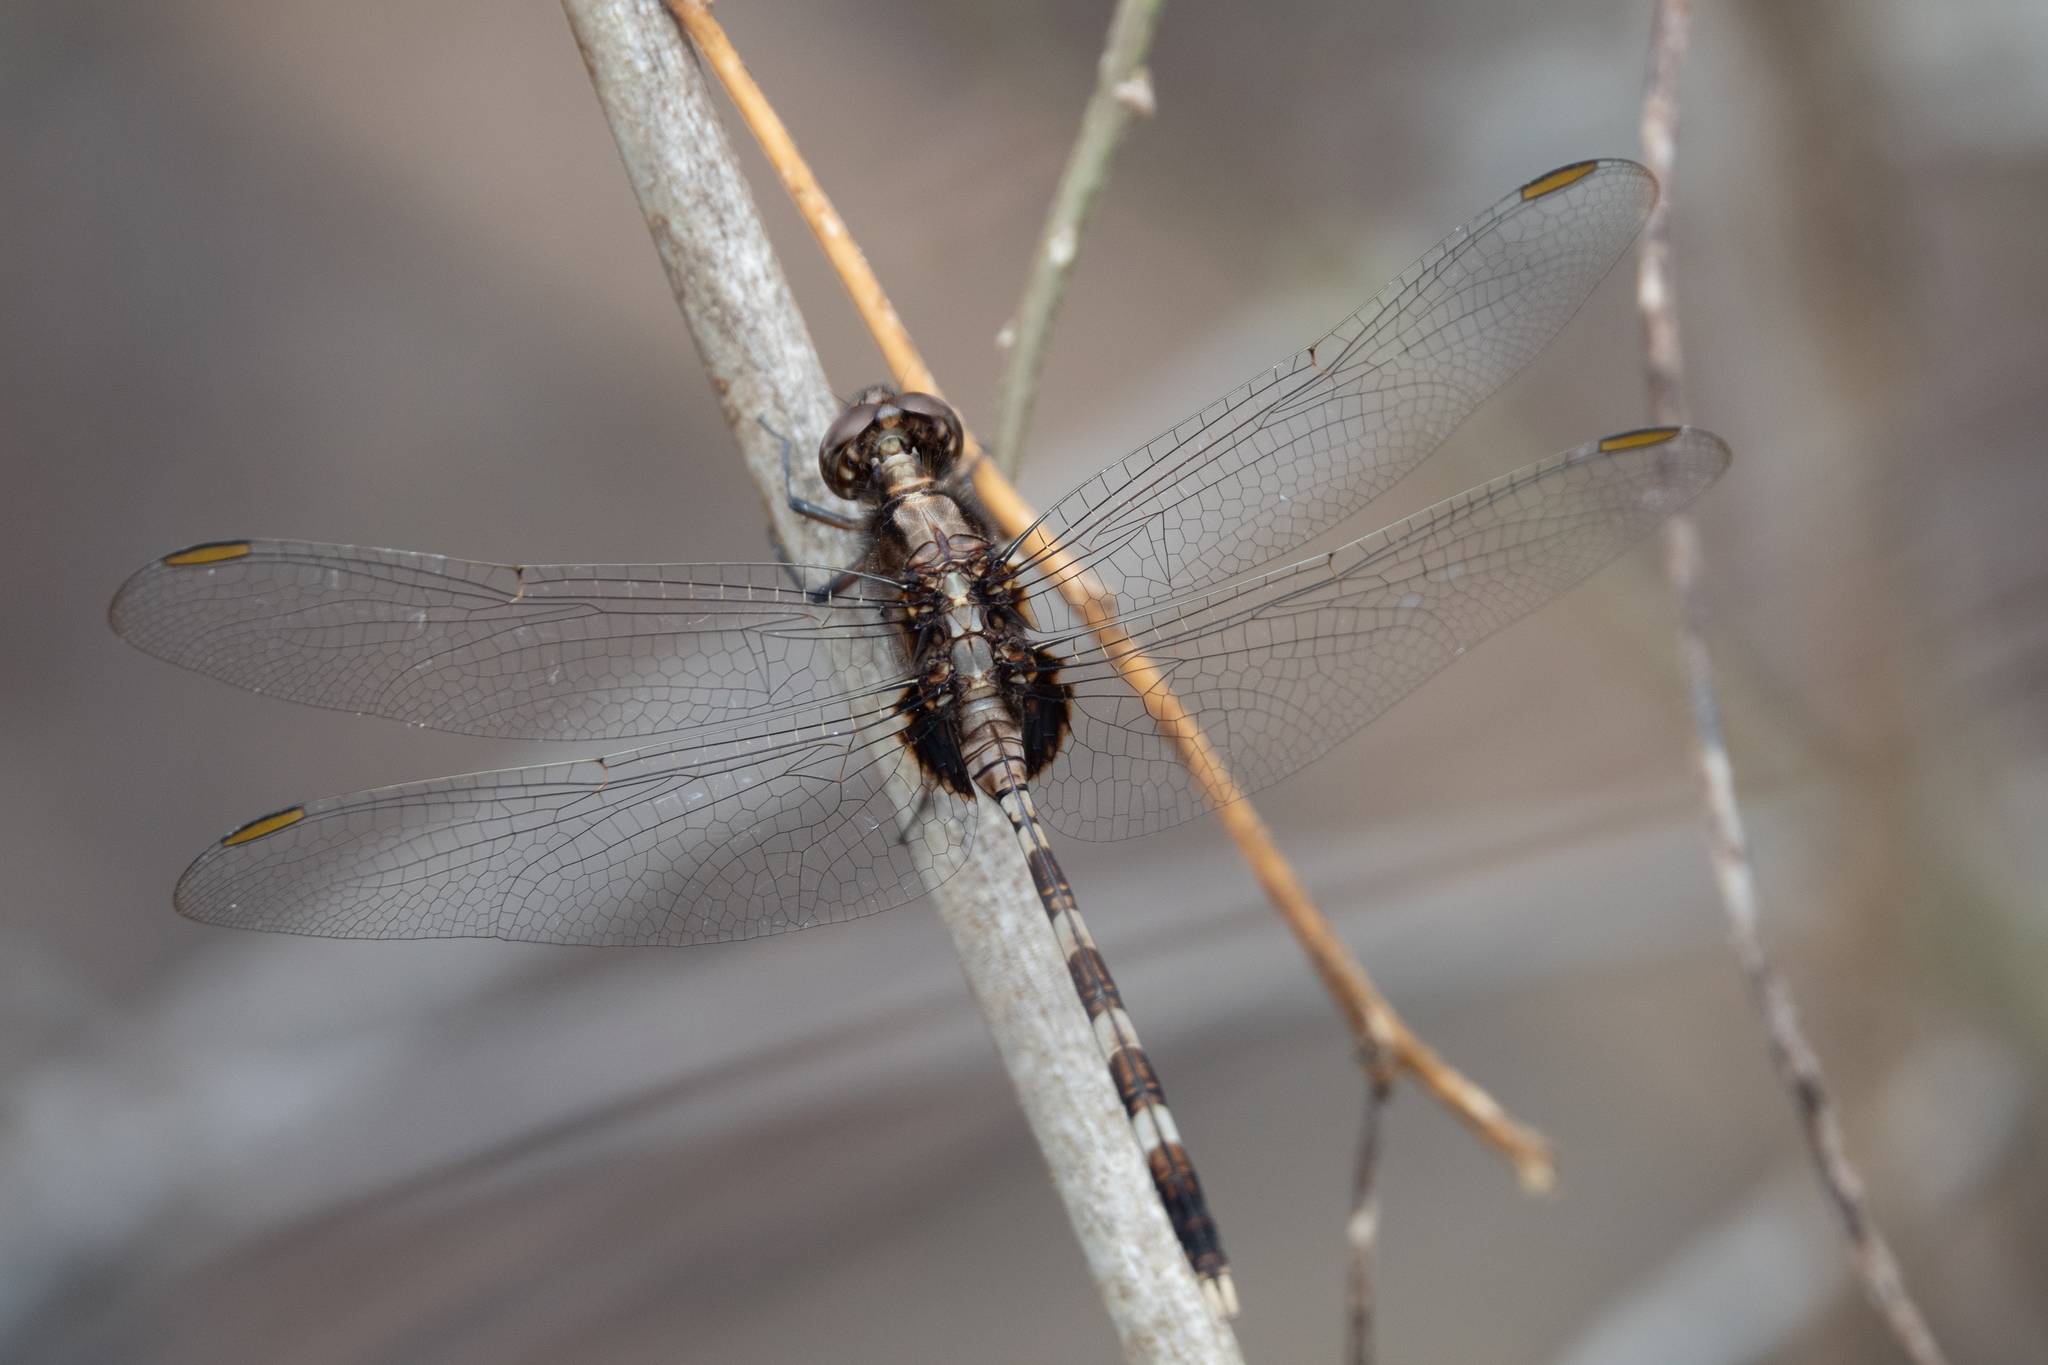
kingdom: Animalia
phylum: Arthropoda
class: Insecta
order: Odonata
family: Libellulidae
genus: Erythemis
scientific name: Erythemis plebeja
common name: Pin-tailed pondhawk
